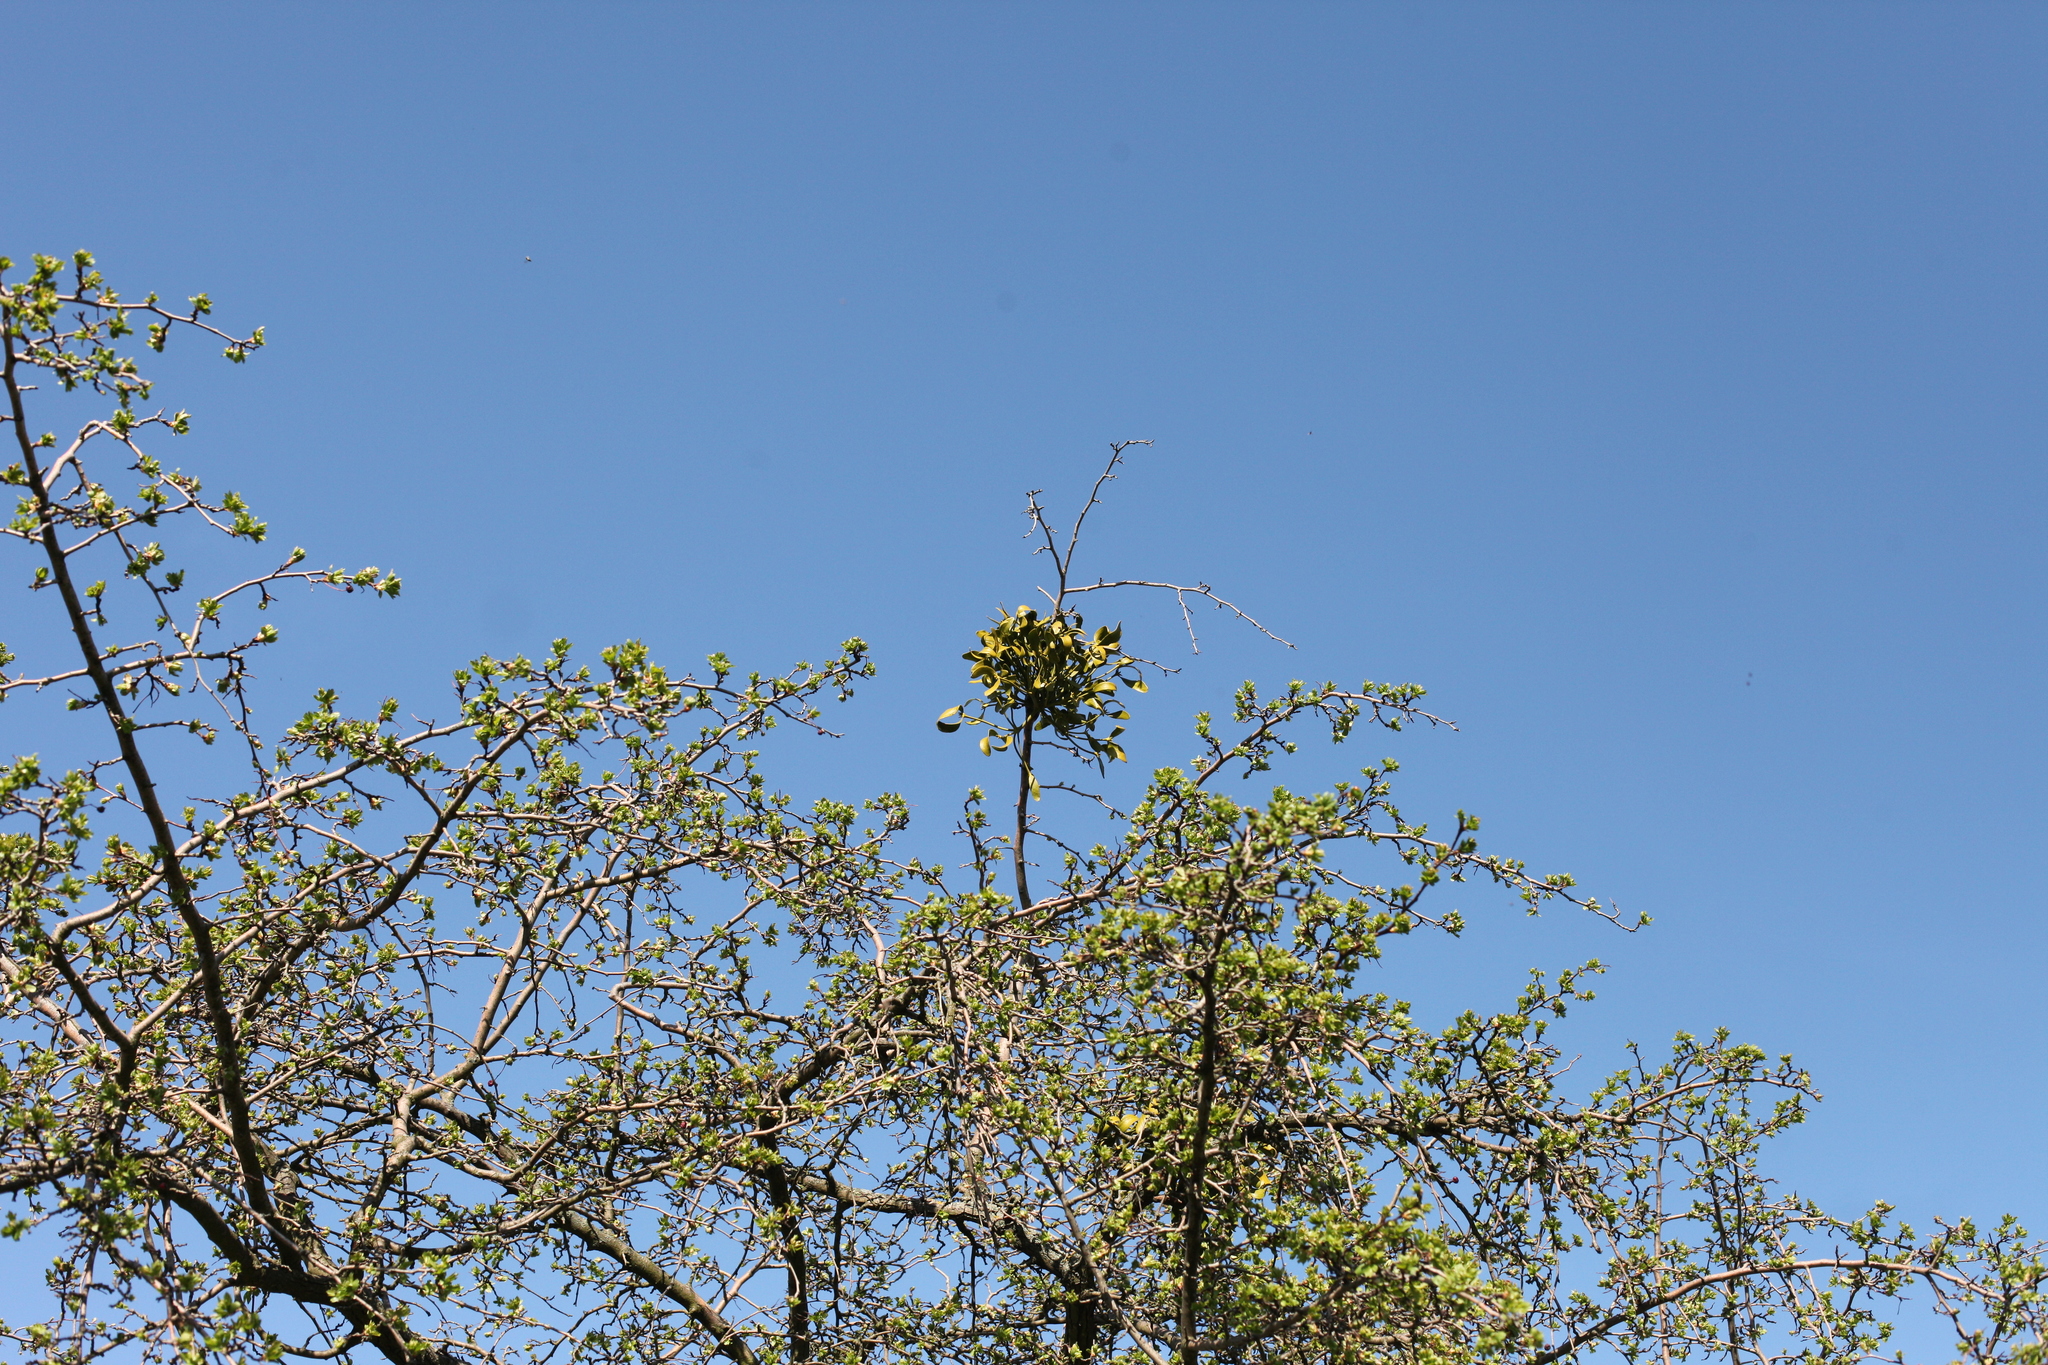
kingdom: Plantae
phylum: Tracheophyta
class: Magnoliopsida
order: Santalales
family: Viscaceae
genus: Viscum
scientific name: Viscum album
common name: Mistletoe
